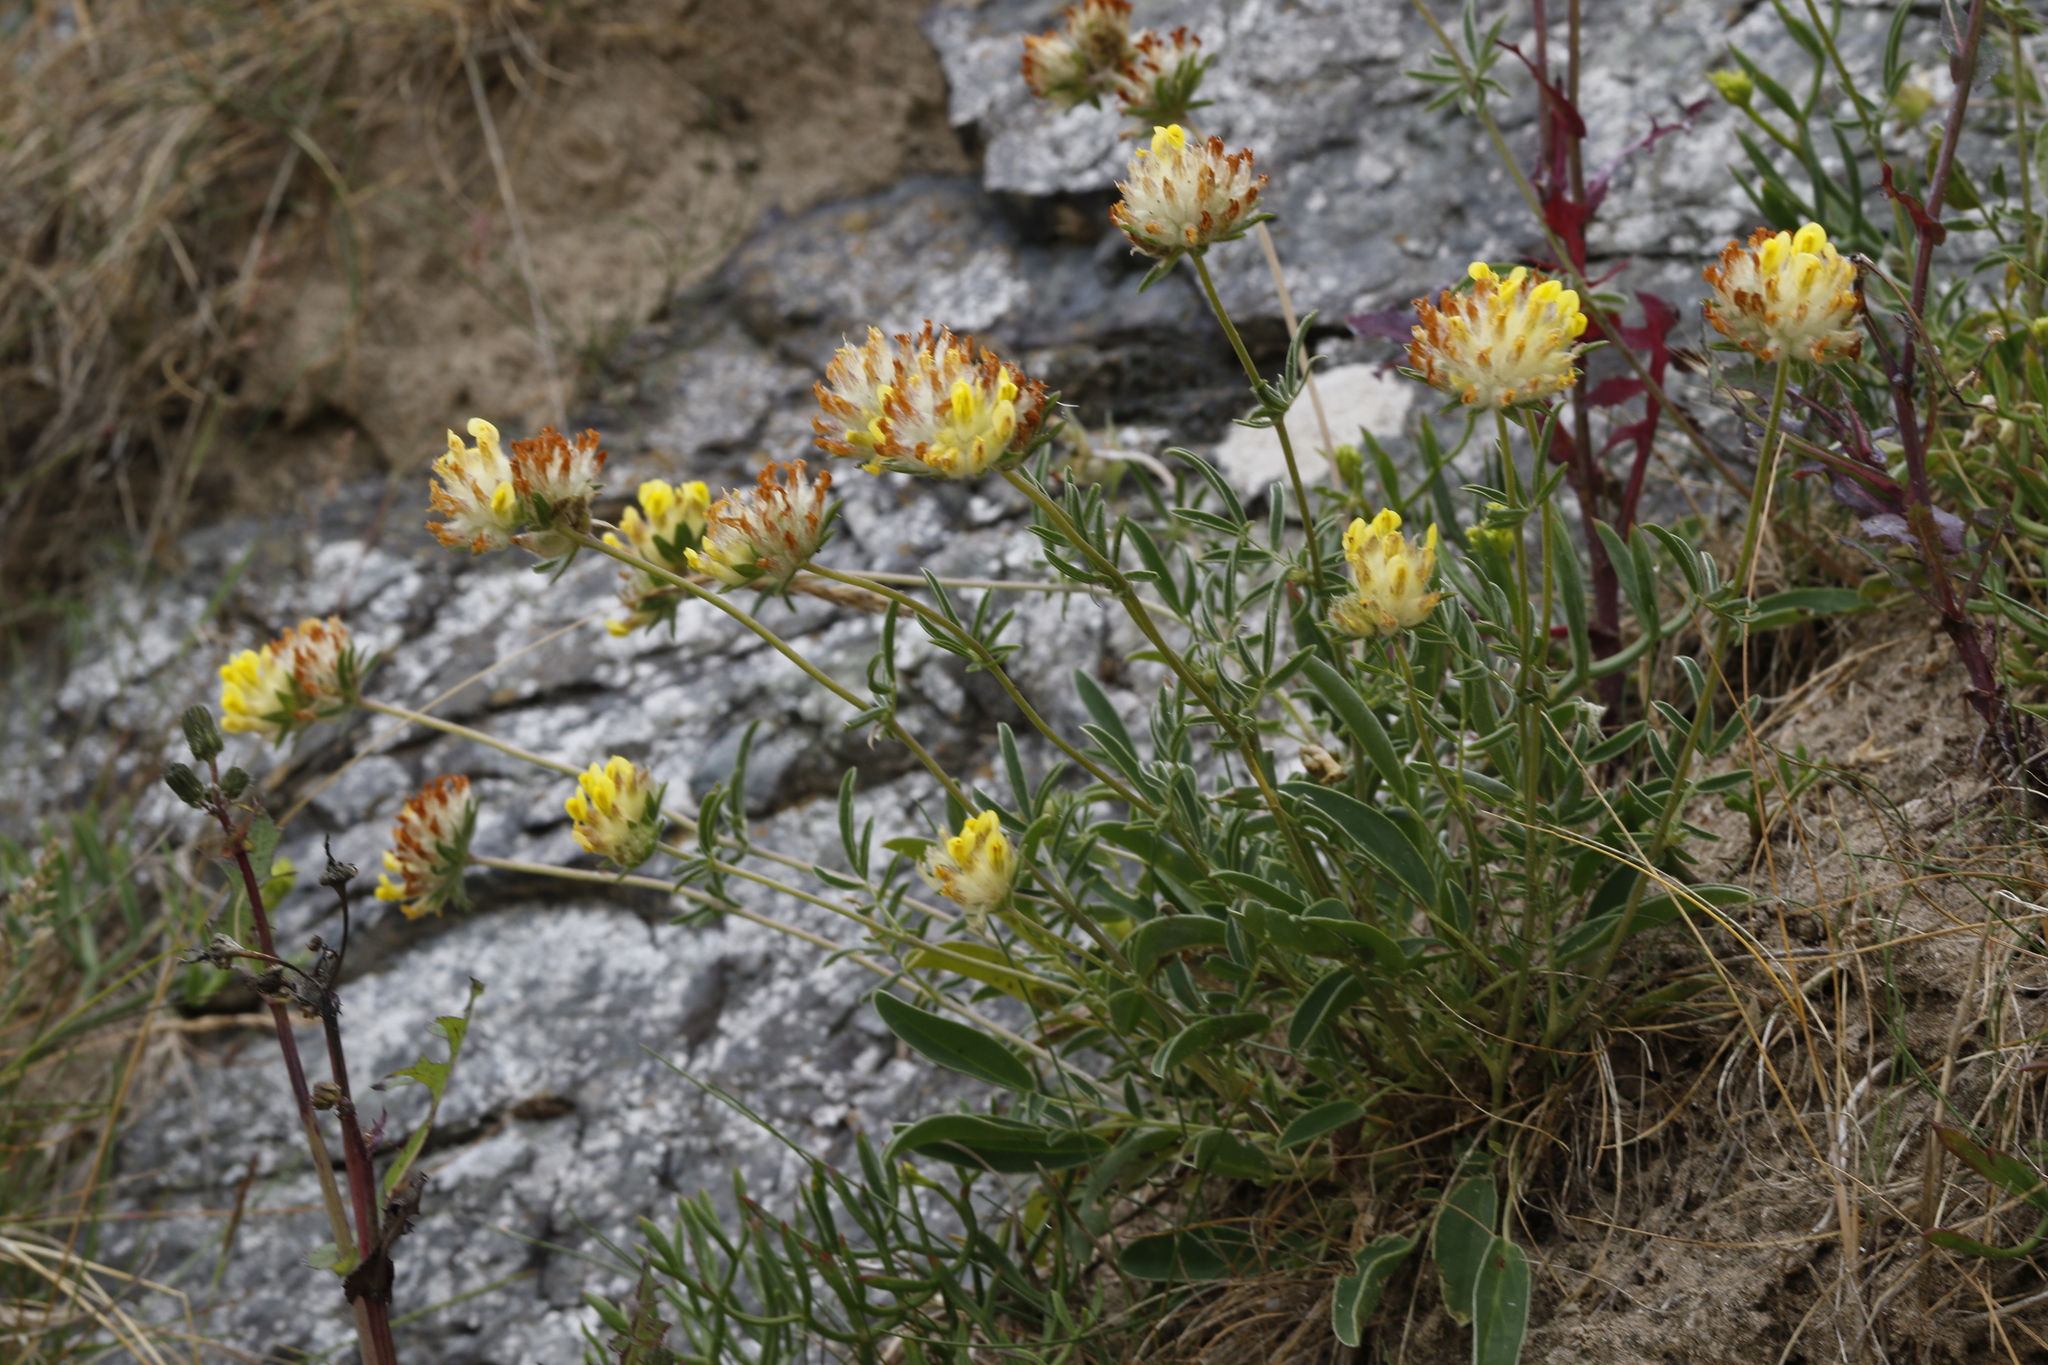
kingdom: Plantae
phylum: Tracheophyta
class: Magnoliopsida
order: Fabales
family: Fabaceae
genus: Anthyllis
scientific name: Anthyllis vulneraria
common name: Kidney vetch
